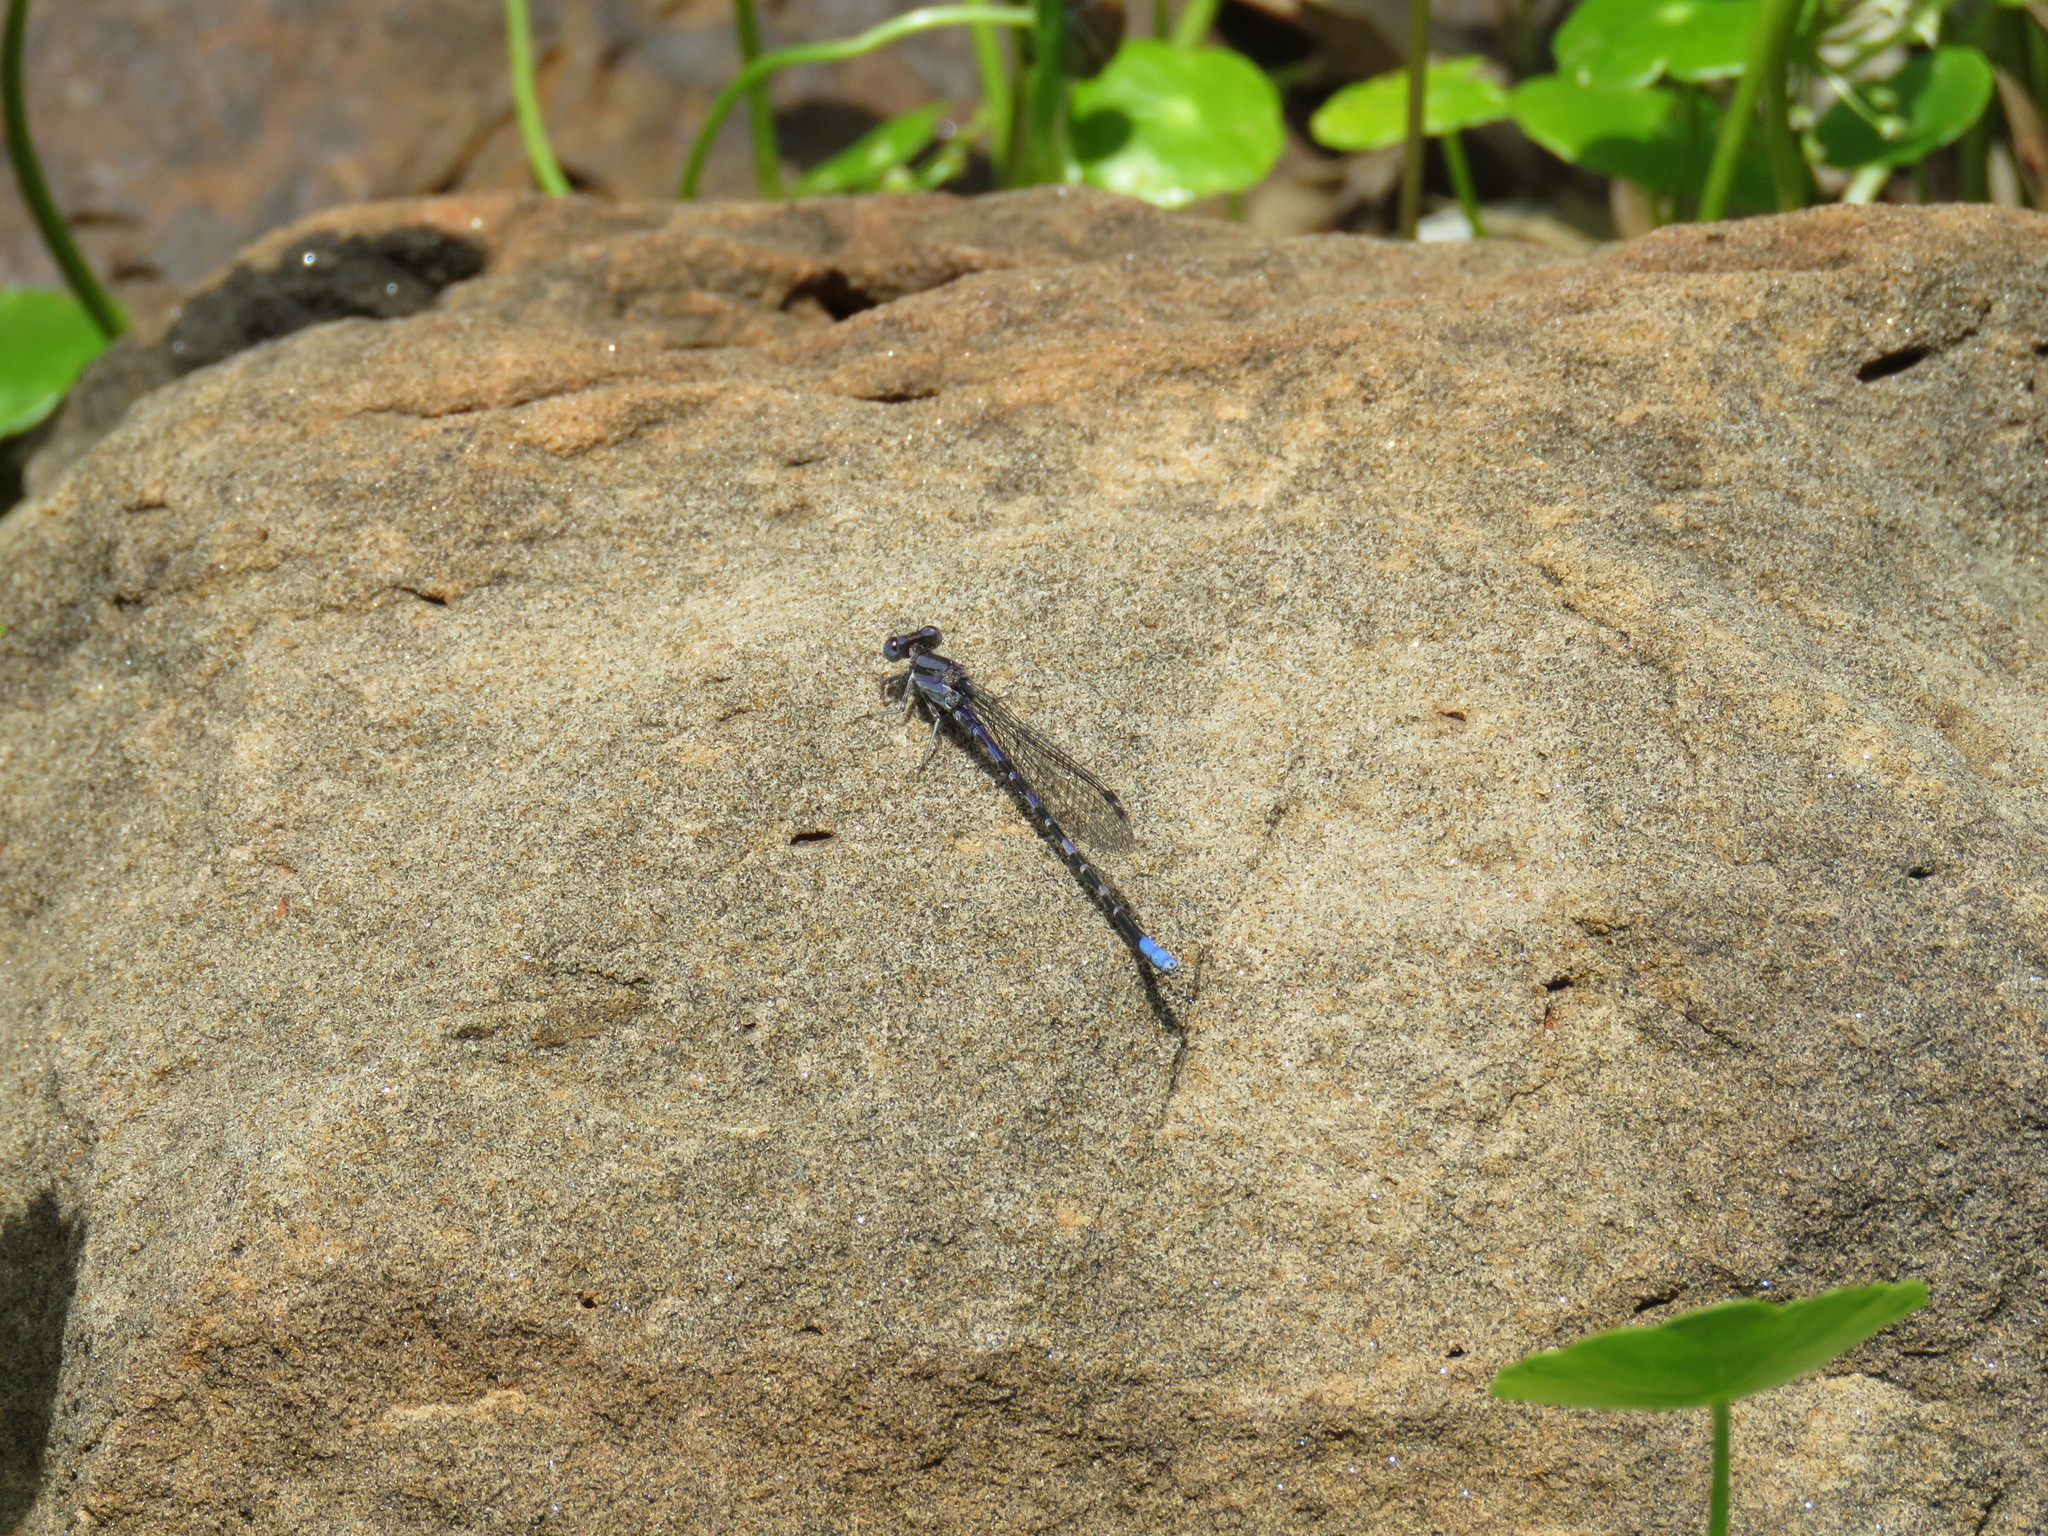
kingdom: Animalia
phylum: Arthropoda
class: Insecta
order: Odonata
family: Coenagrionidae
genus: Argia
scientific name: Argia immunda
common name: Kiowa dancer
